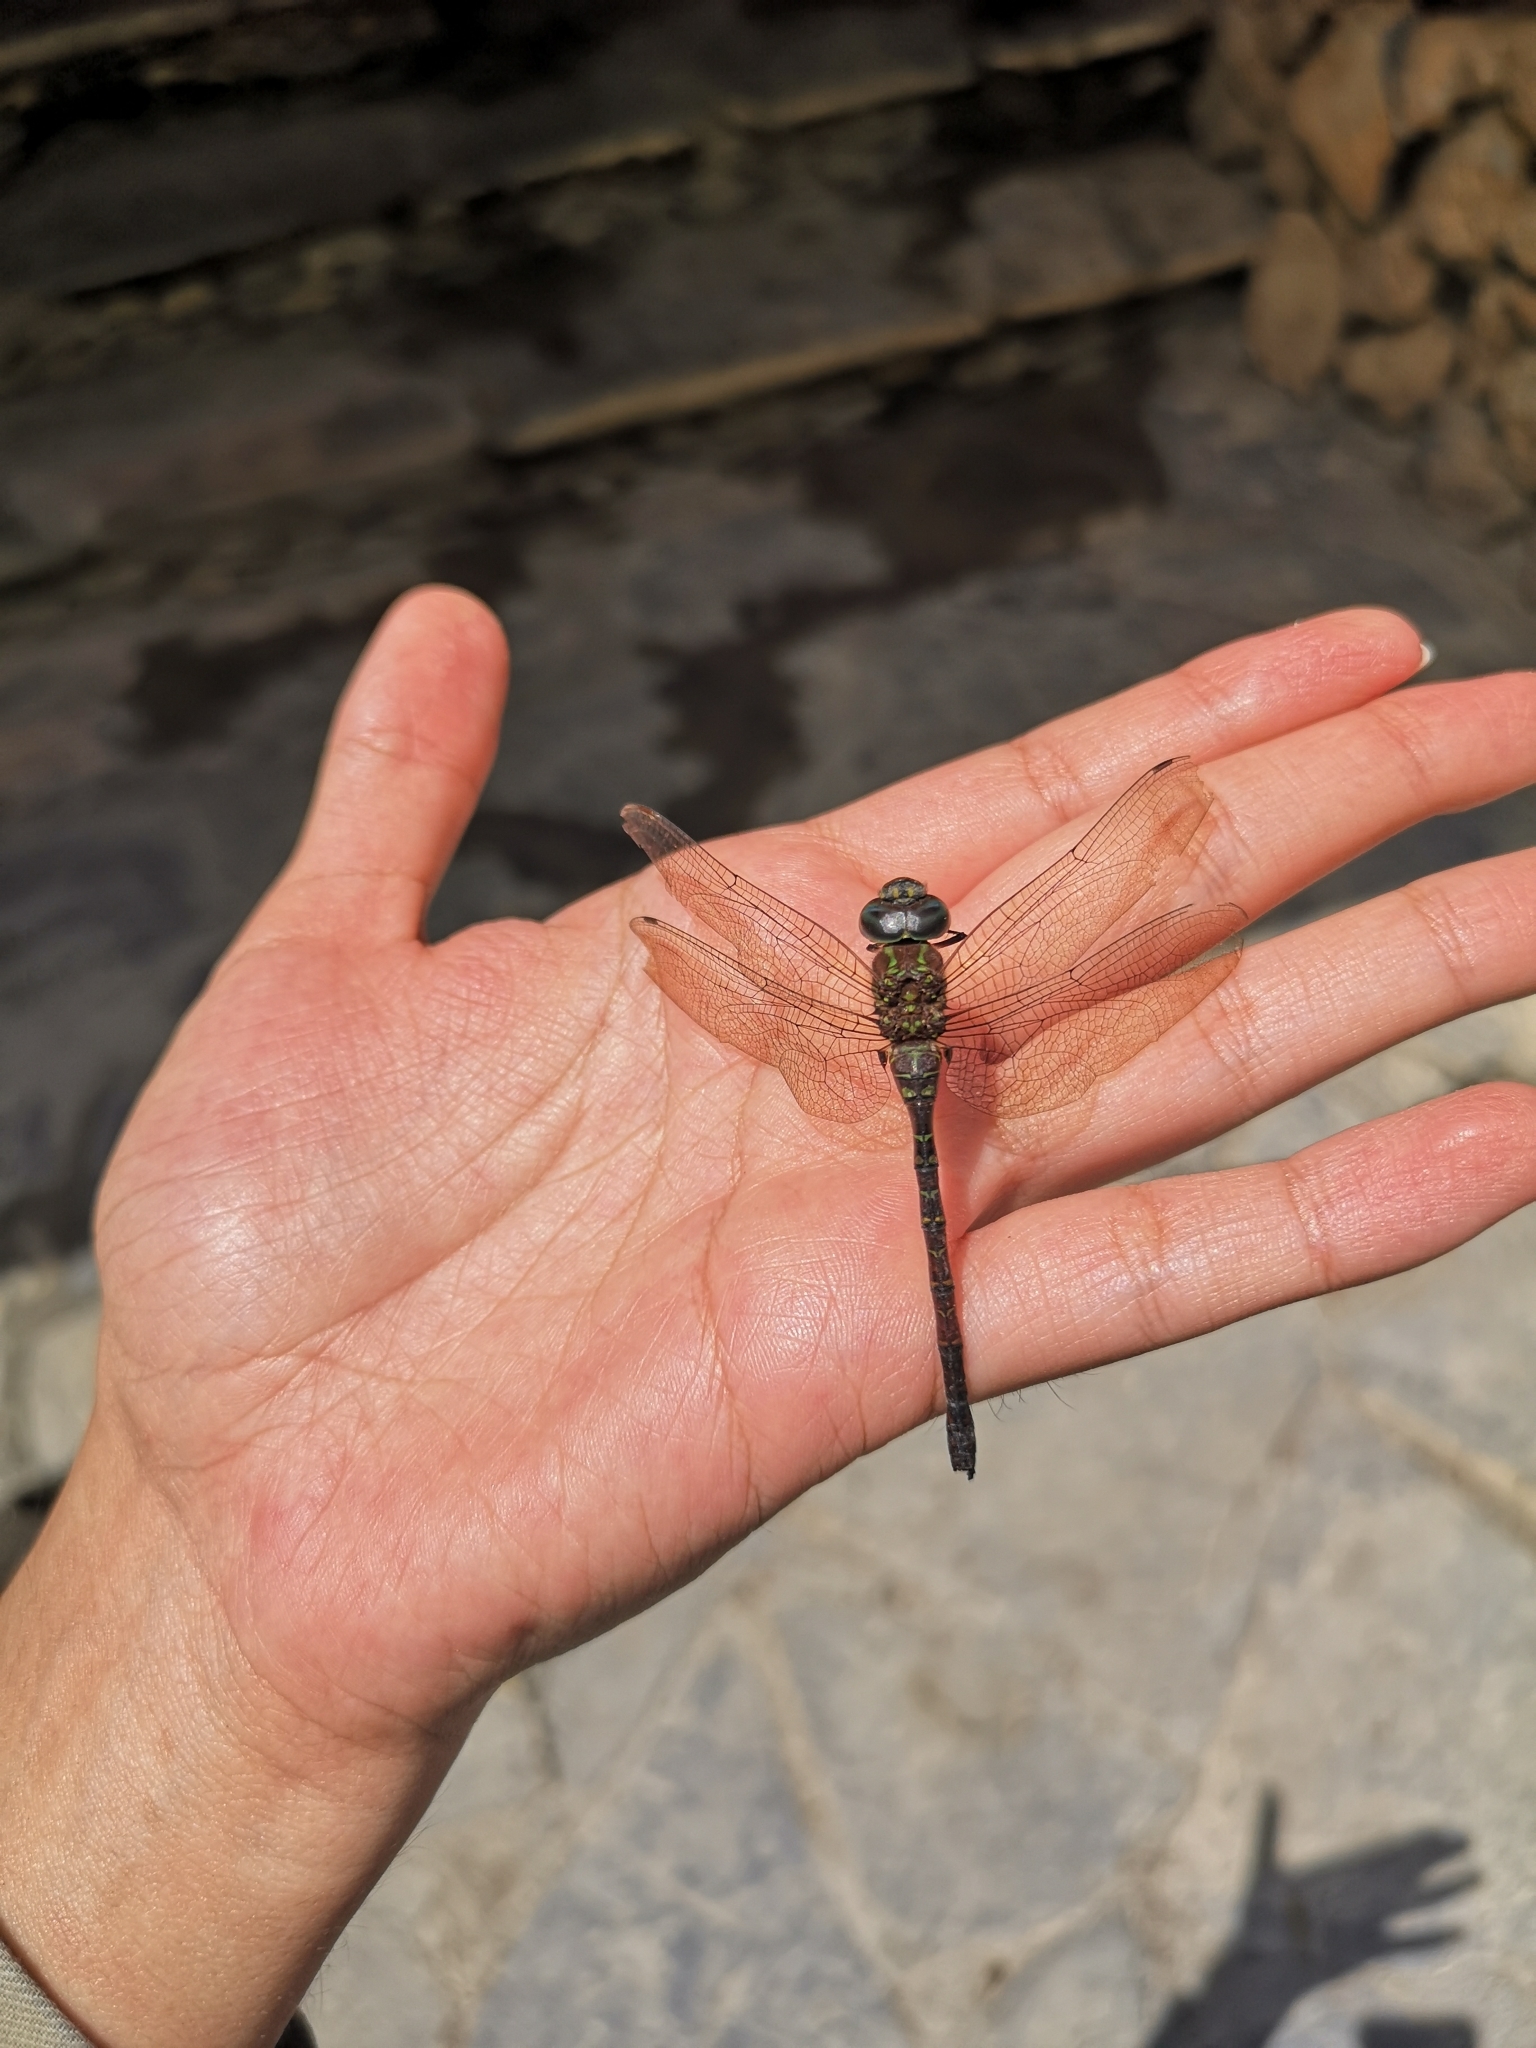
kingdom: Animalia
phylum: Arthropoda
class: Insecta
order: Odonata
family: Aeshnidae
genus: Rhionaeschna
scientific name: Rhionaeschna psilus
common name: Turquoise-tipped darner
